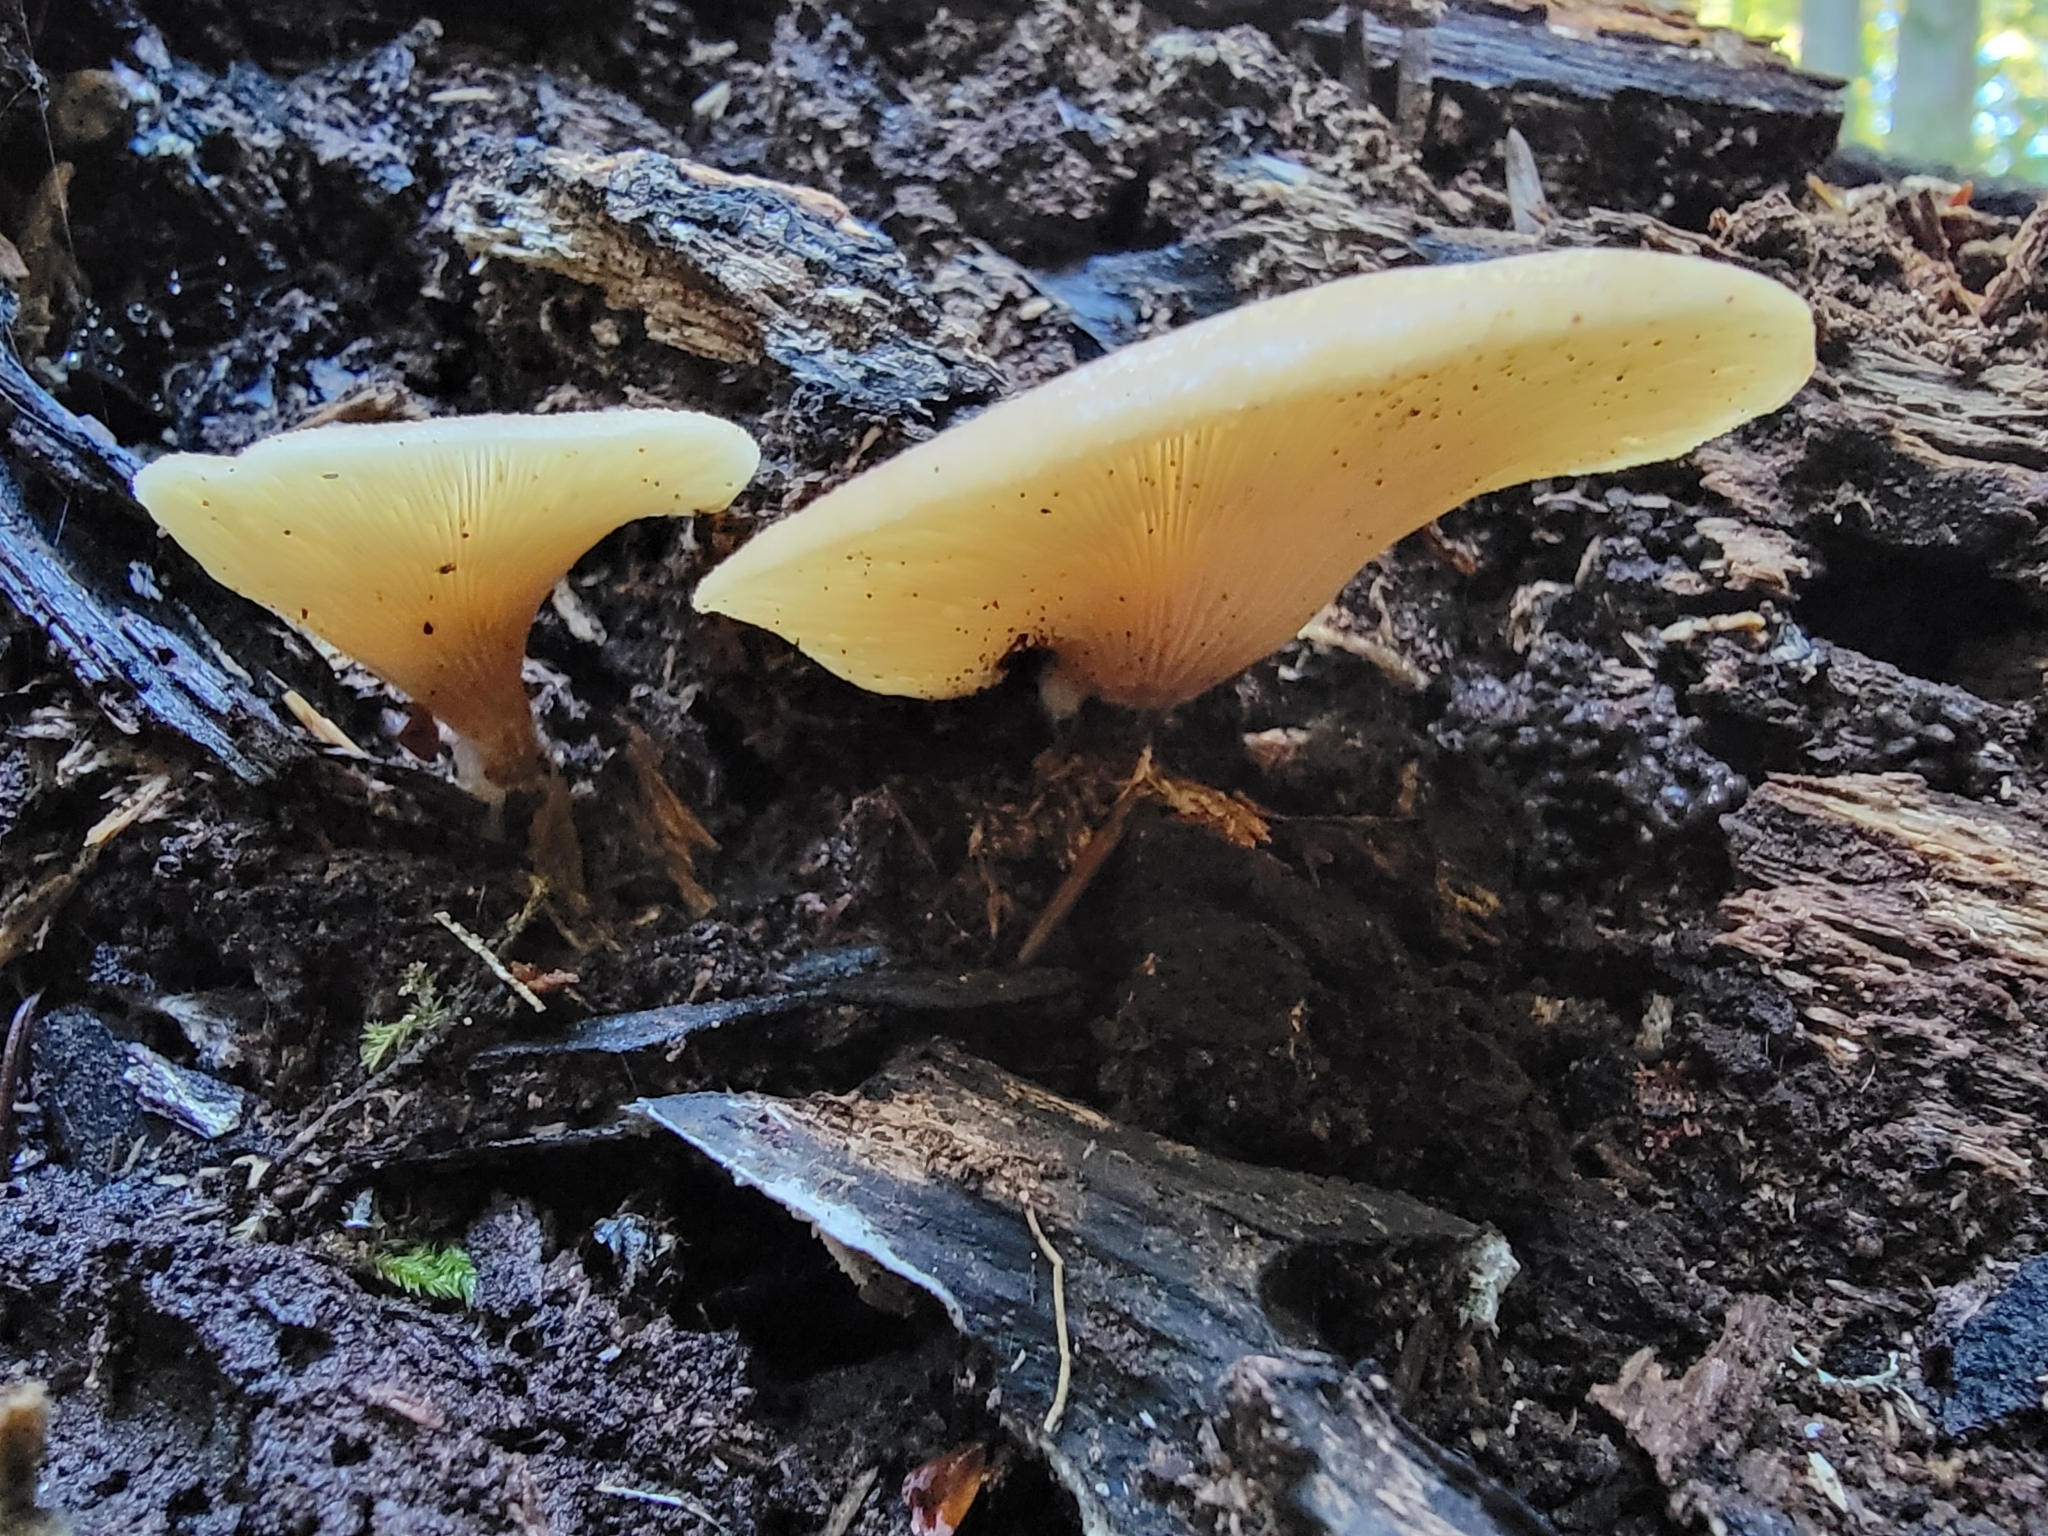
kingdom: Fungi
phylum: Basidiomycota
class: Agaricomycetes
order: Agaricales
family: Crepidotaceae
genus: Crepidotus
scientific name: Crepidotus mollis
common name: Peeling oysterling
